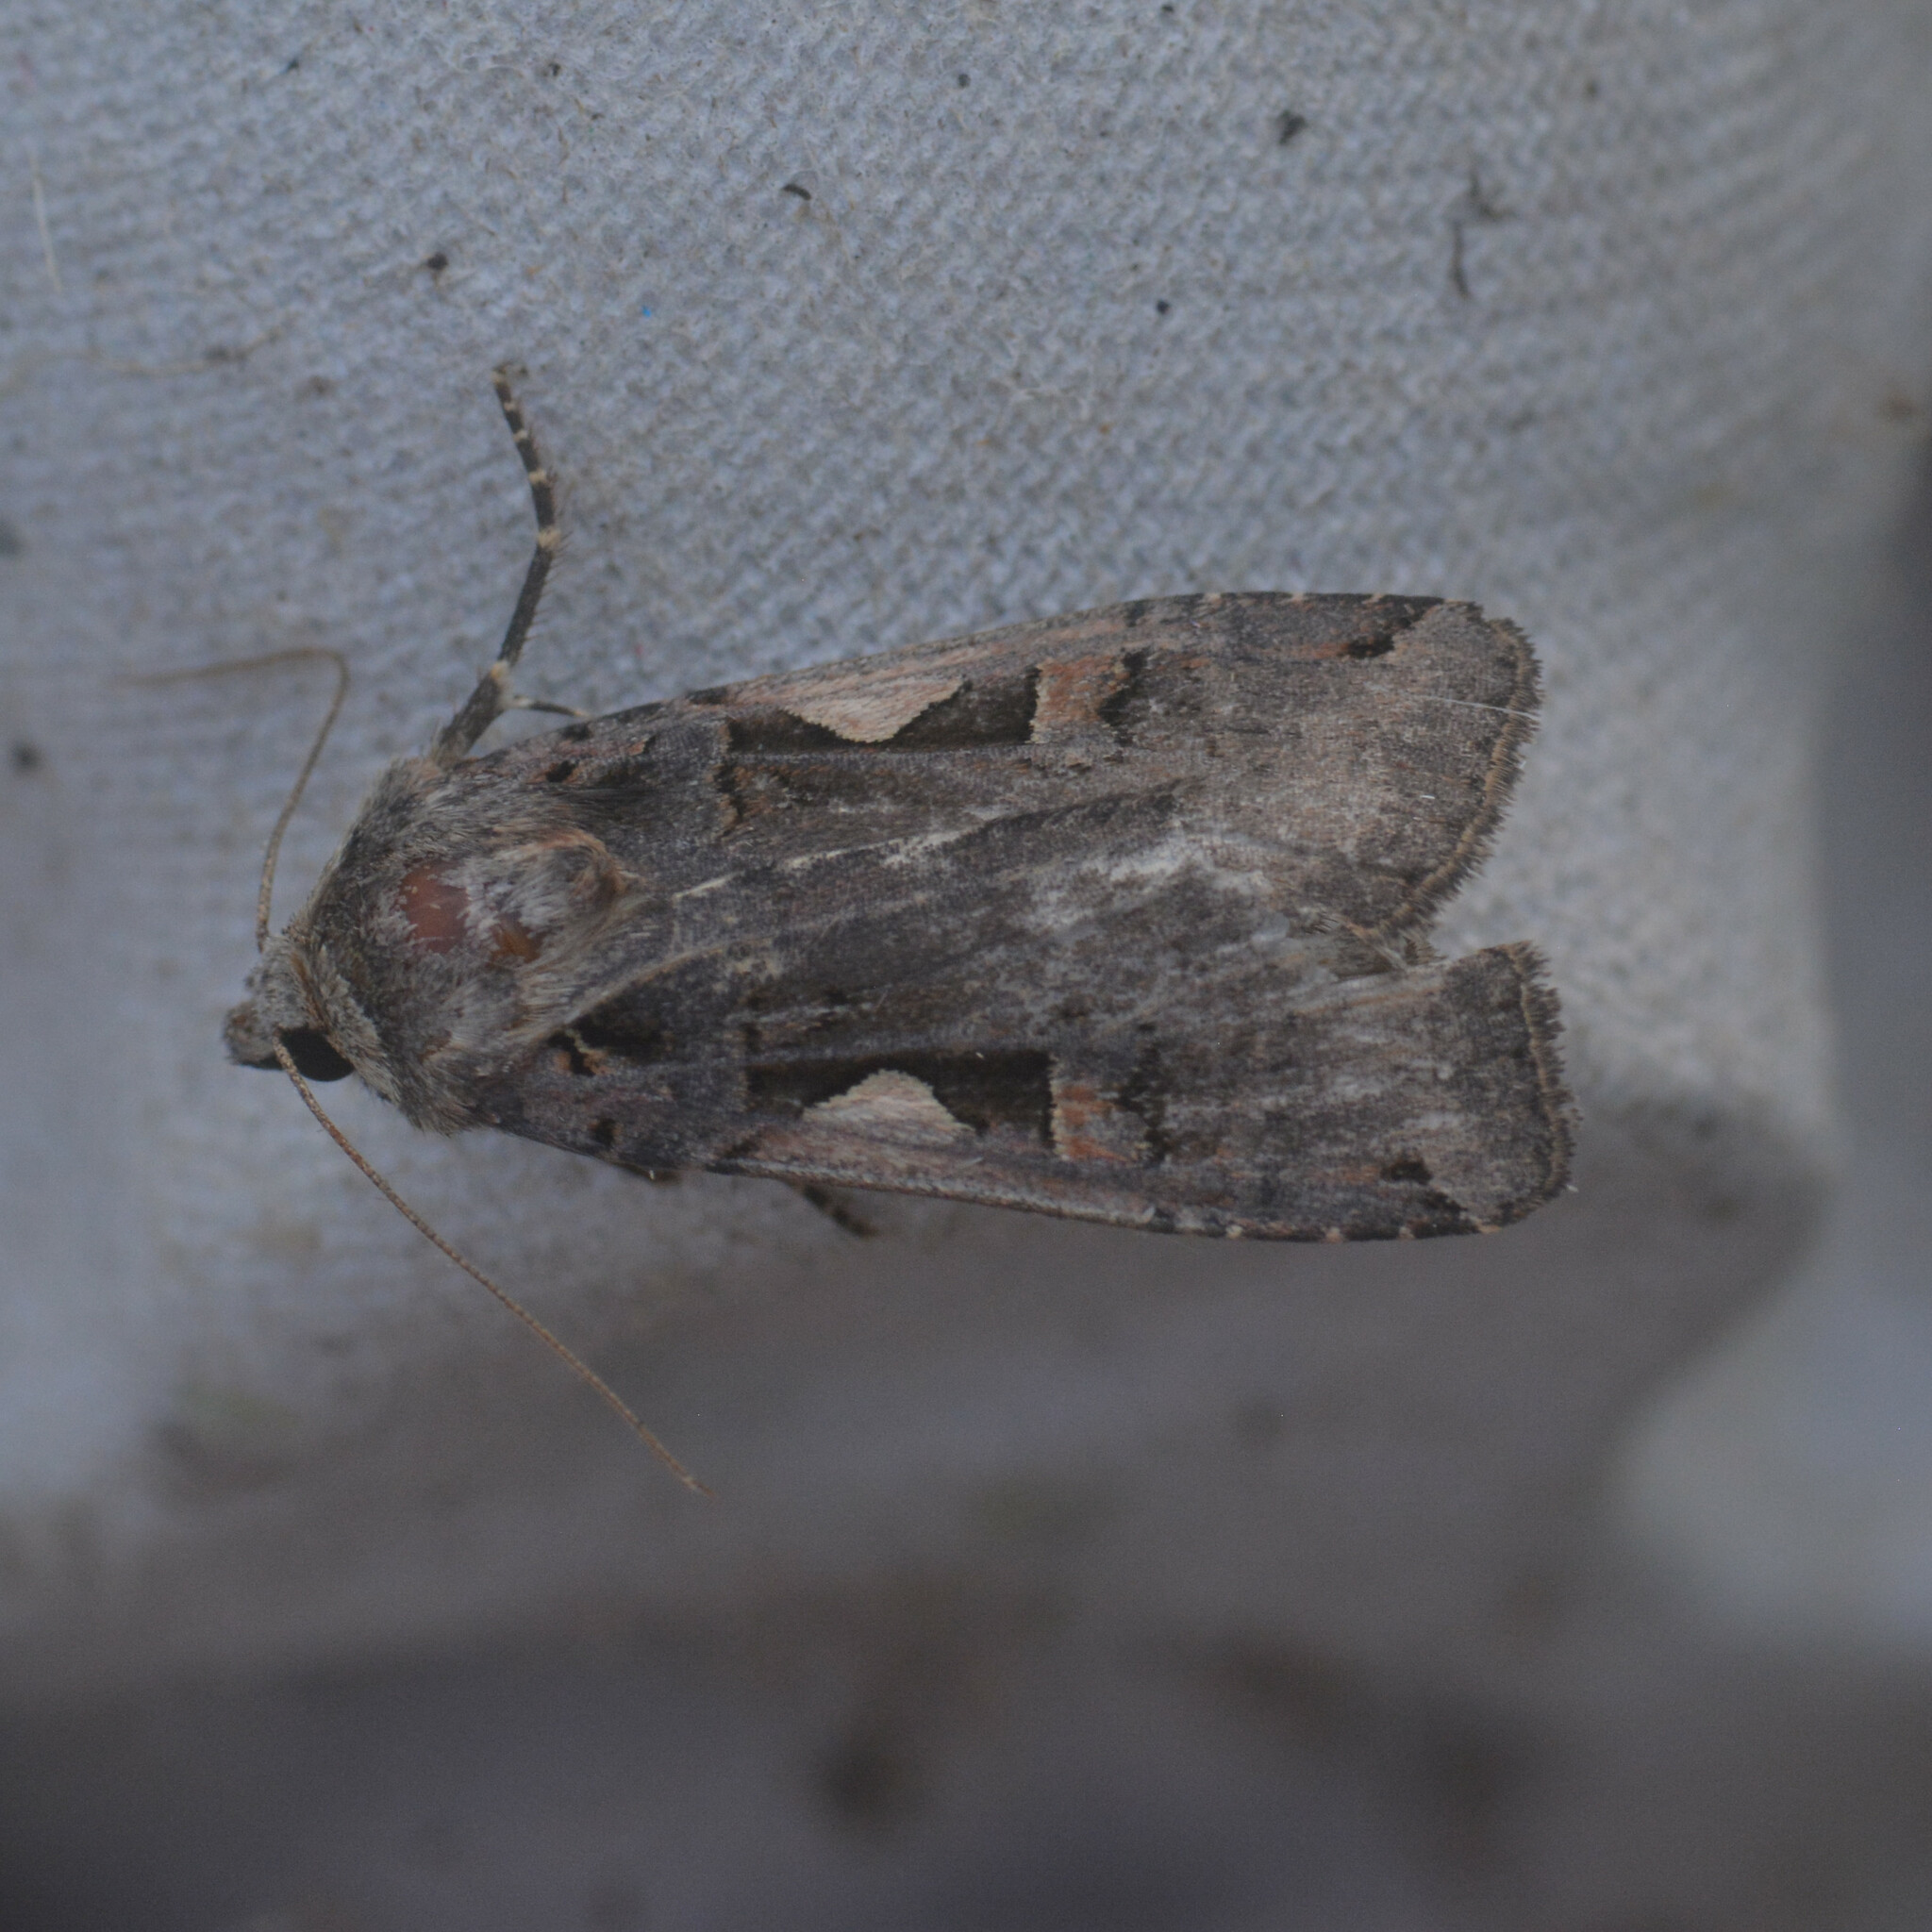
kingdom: Animalia
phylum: Arthropoda
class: Insecta
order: Lepidoptera
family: Noctuidae
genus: Xestia
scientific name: Xestia c-nigrum
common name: Setaceous hebrew character
